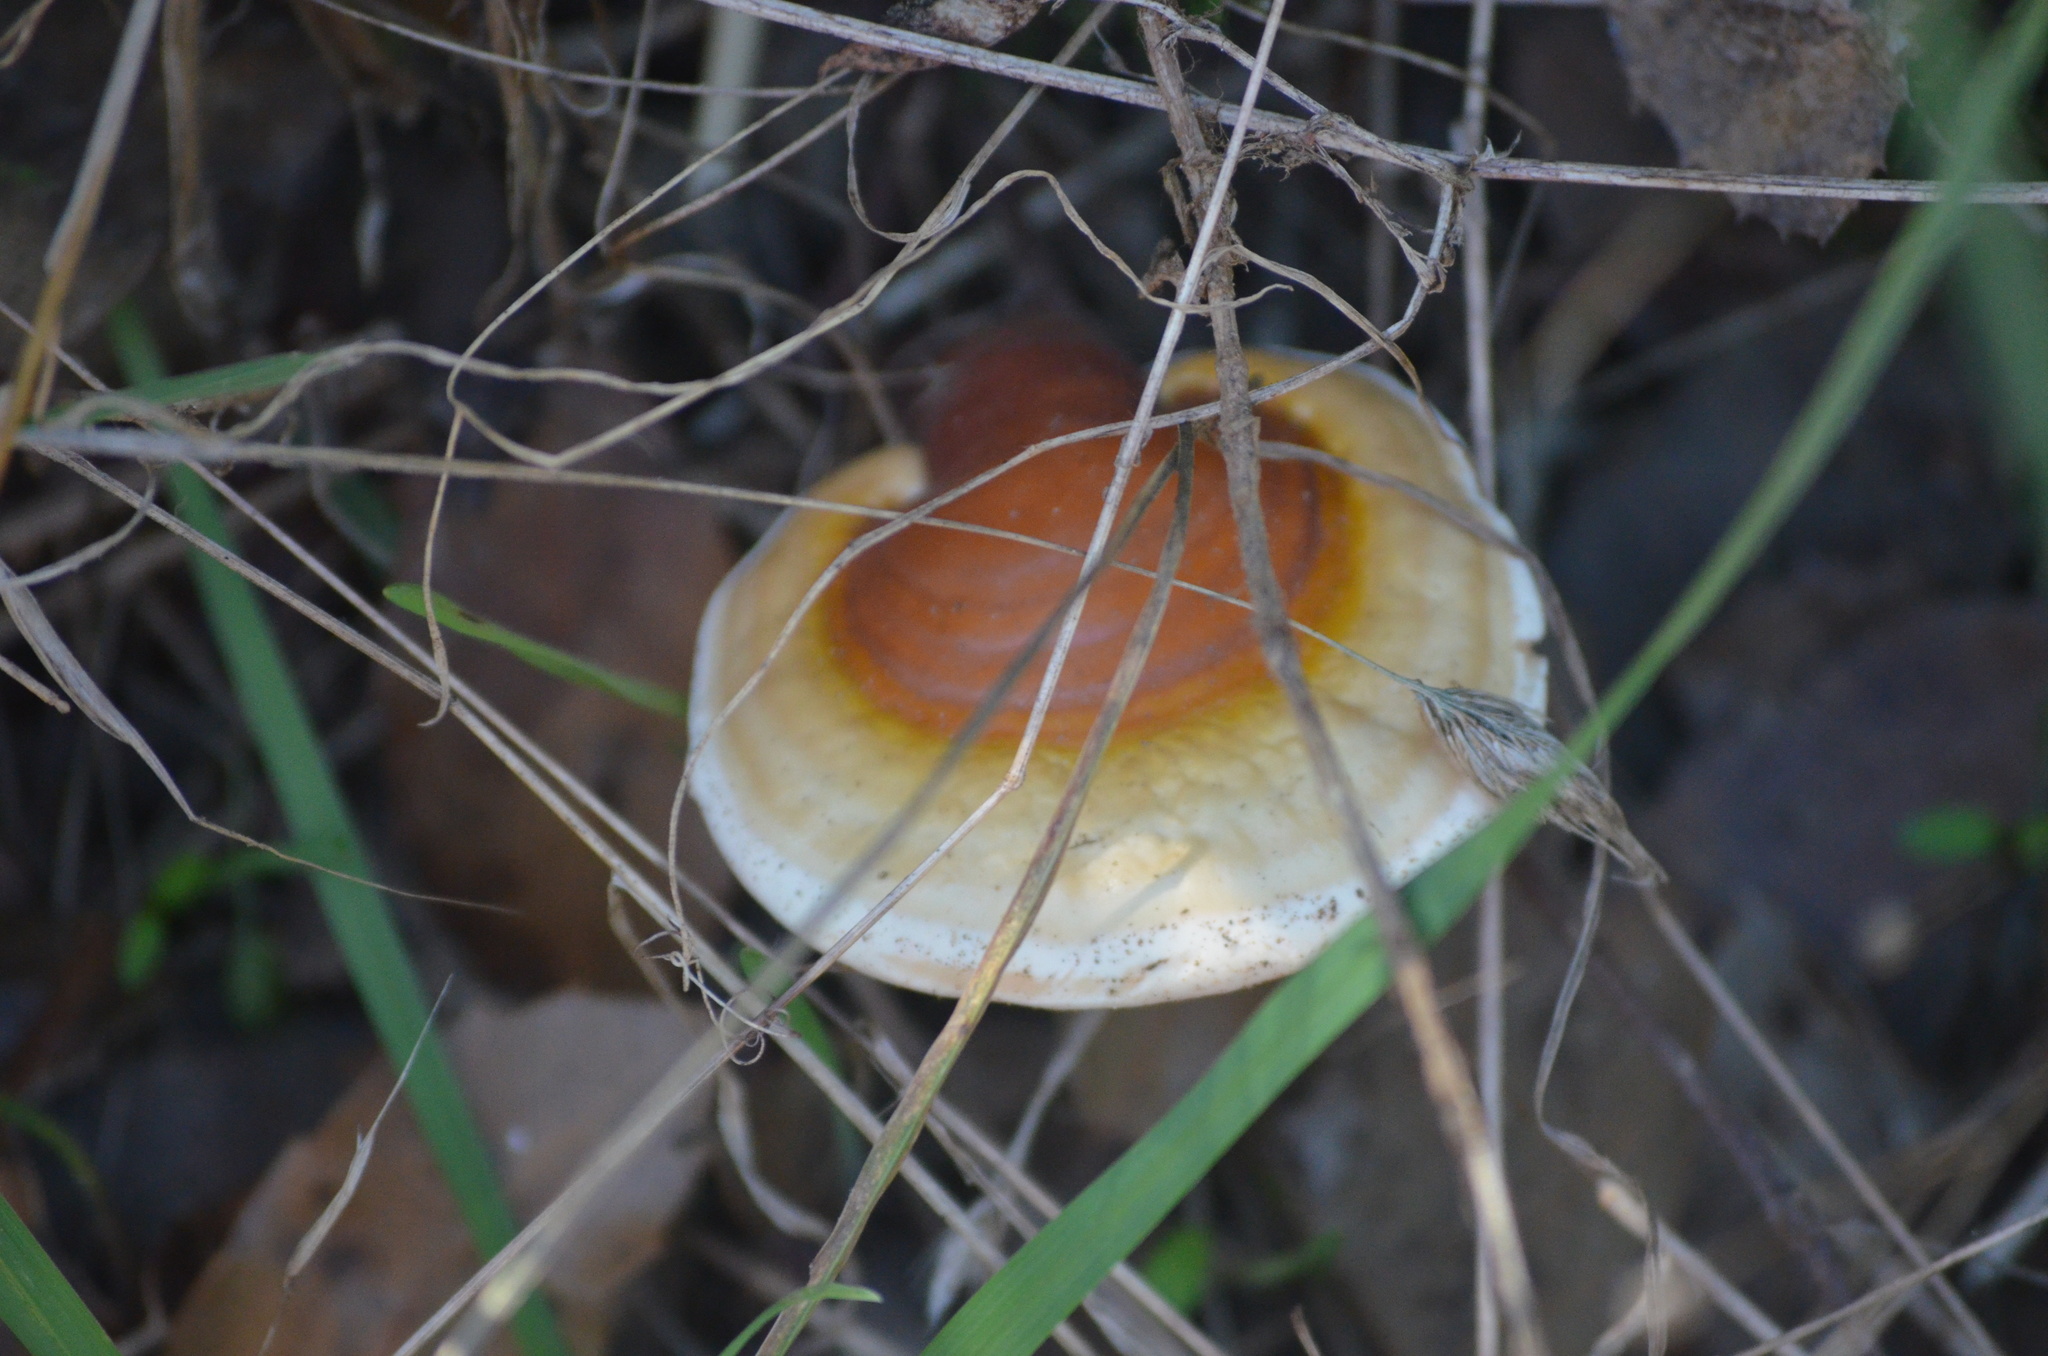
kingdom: Fungi
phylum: Basidiomycota
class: Agaricomycetes
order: Polyporales
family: Polyporaceae
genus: Ganoderma
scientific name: Ganoderma lucidum
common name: Lacquered bracket
